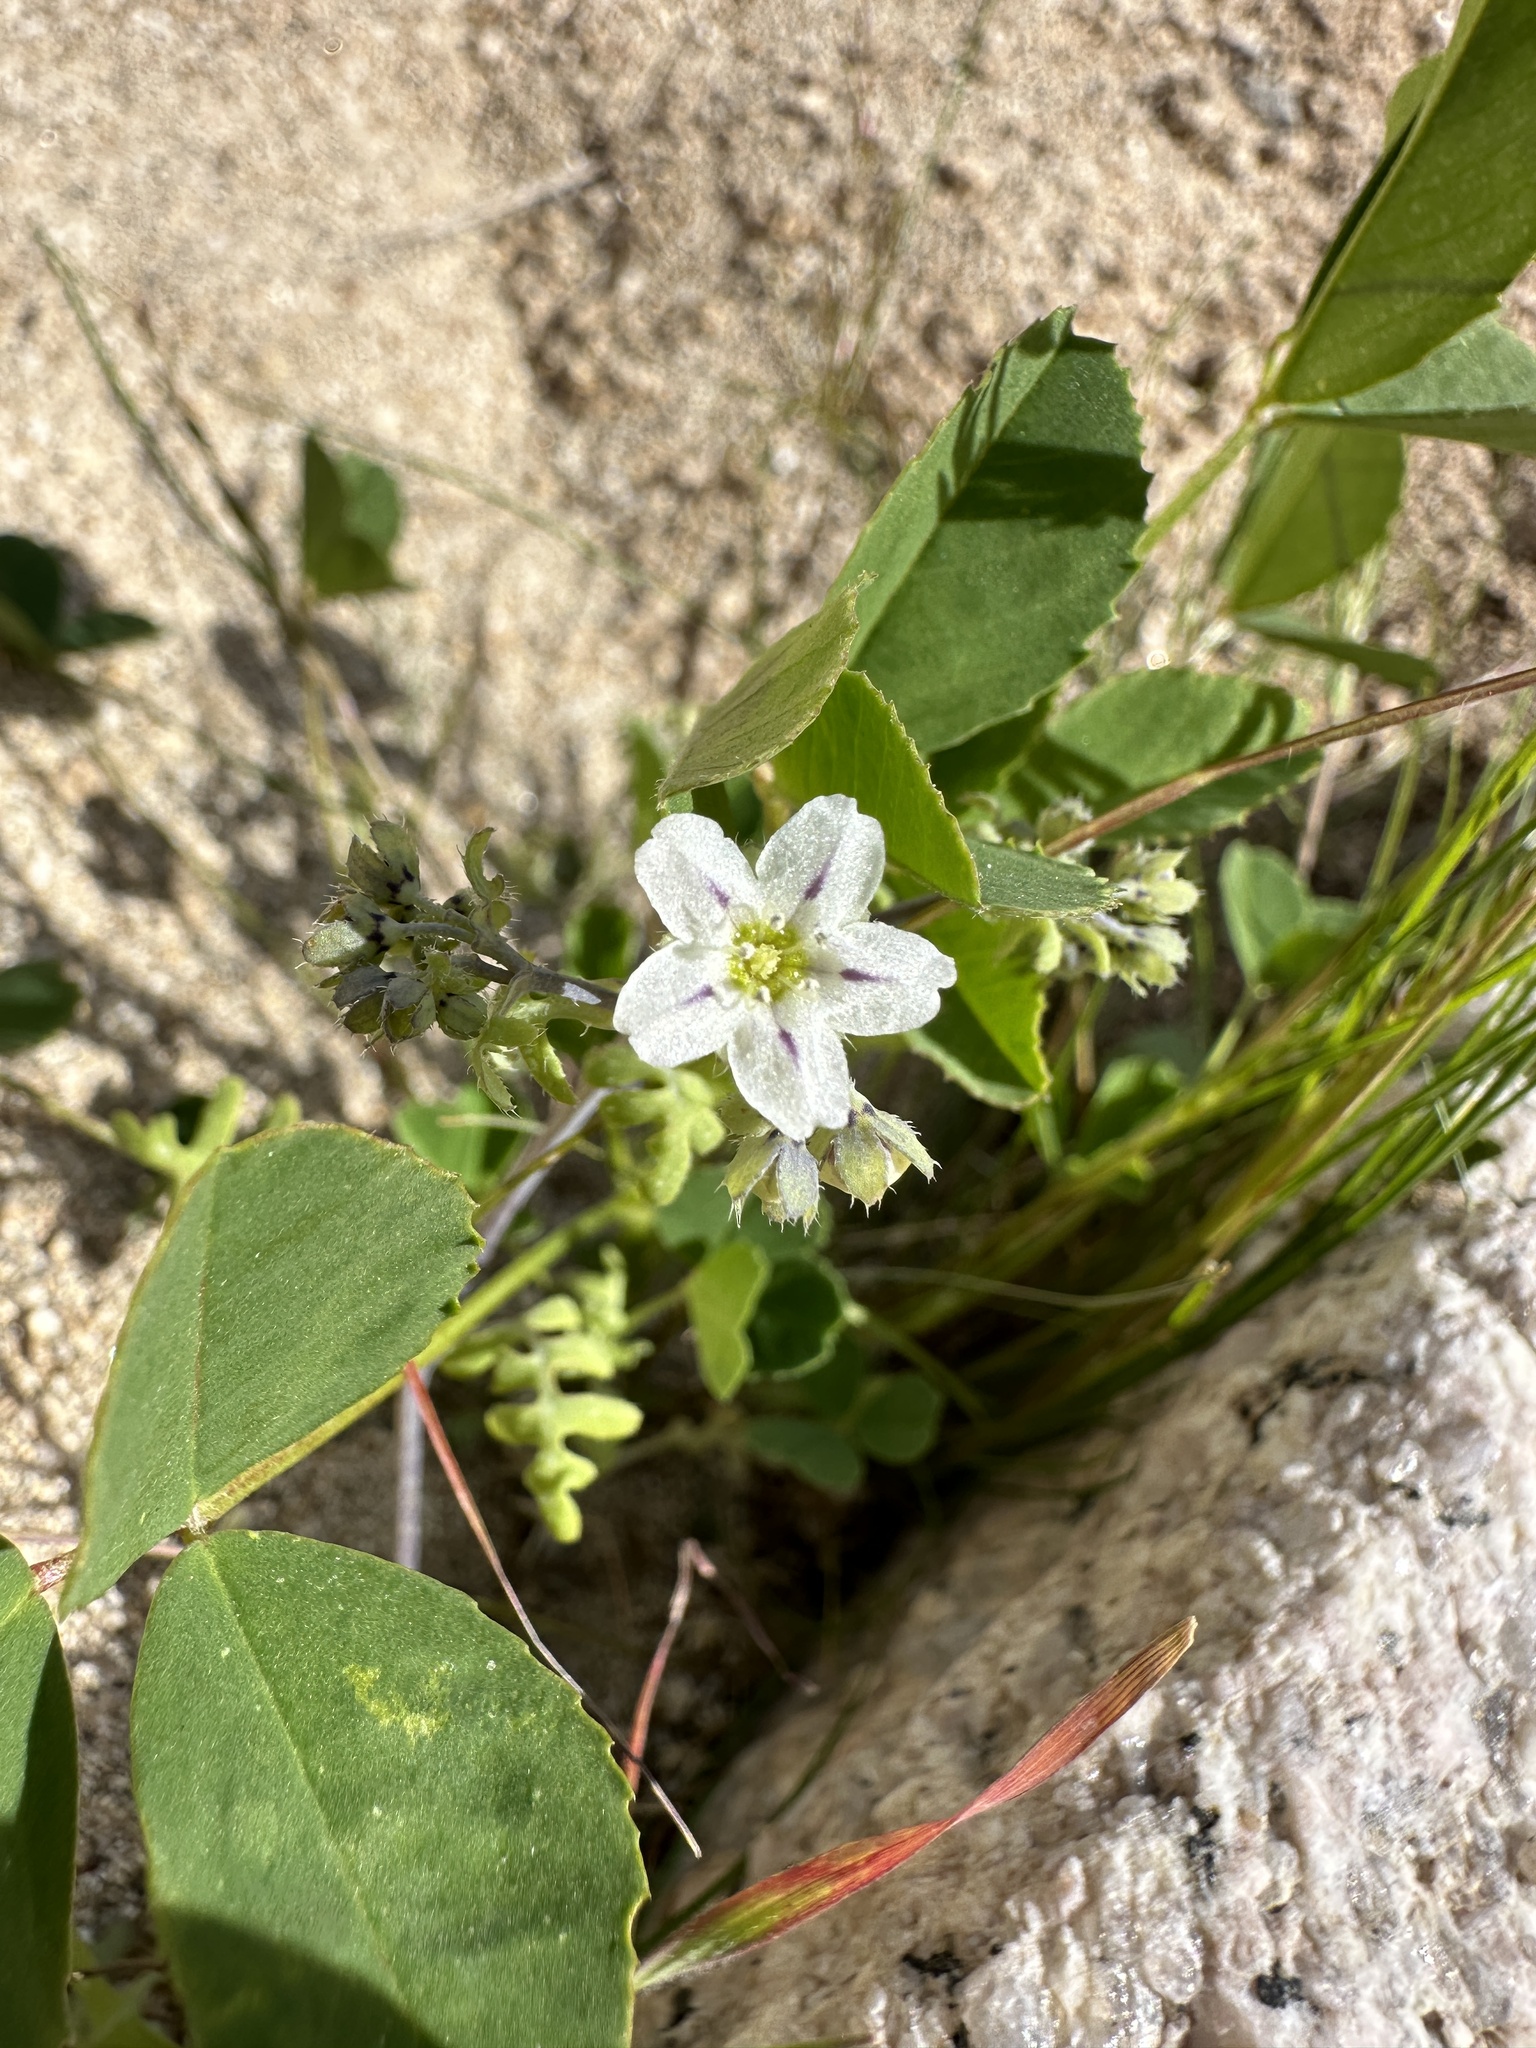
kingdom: Plantae
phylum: Tracheophyta
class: Magnoliopsida
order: Boraginales
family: Hydrophyllaceae
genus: Pholistoma
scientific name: Pholistoma membranaceum
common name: White fiesta-flower
